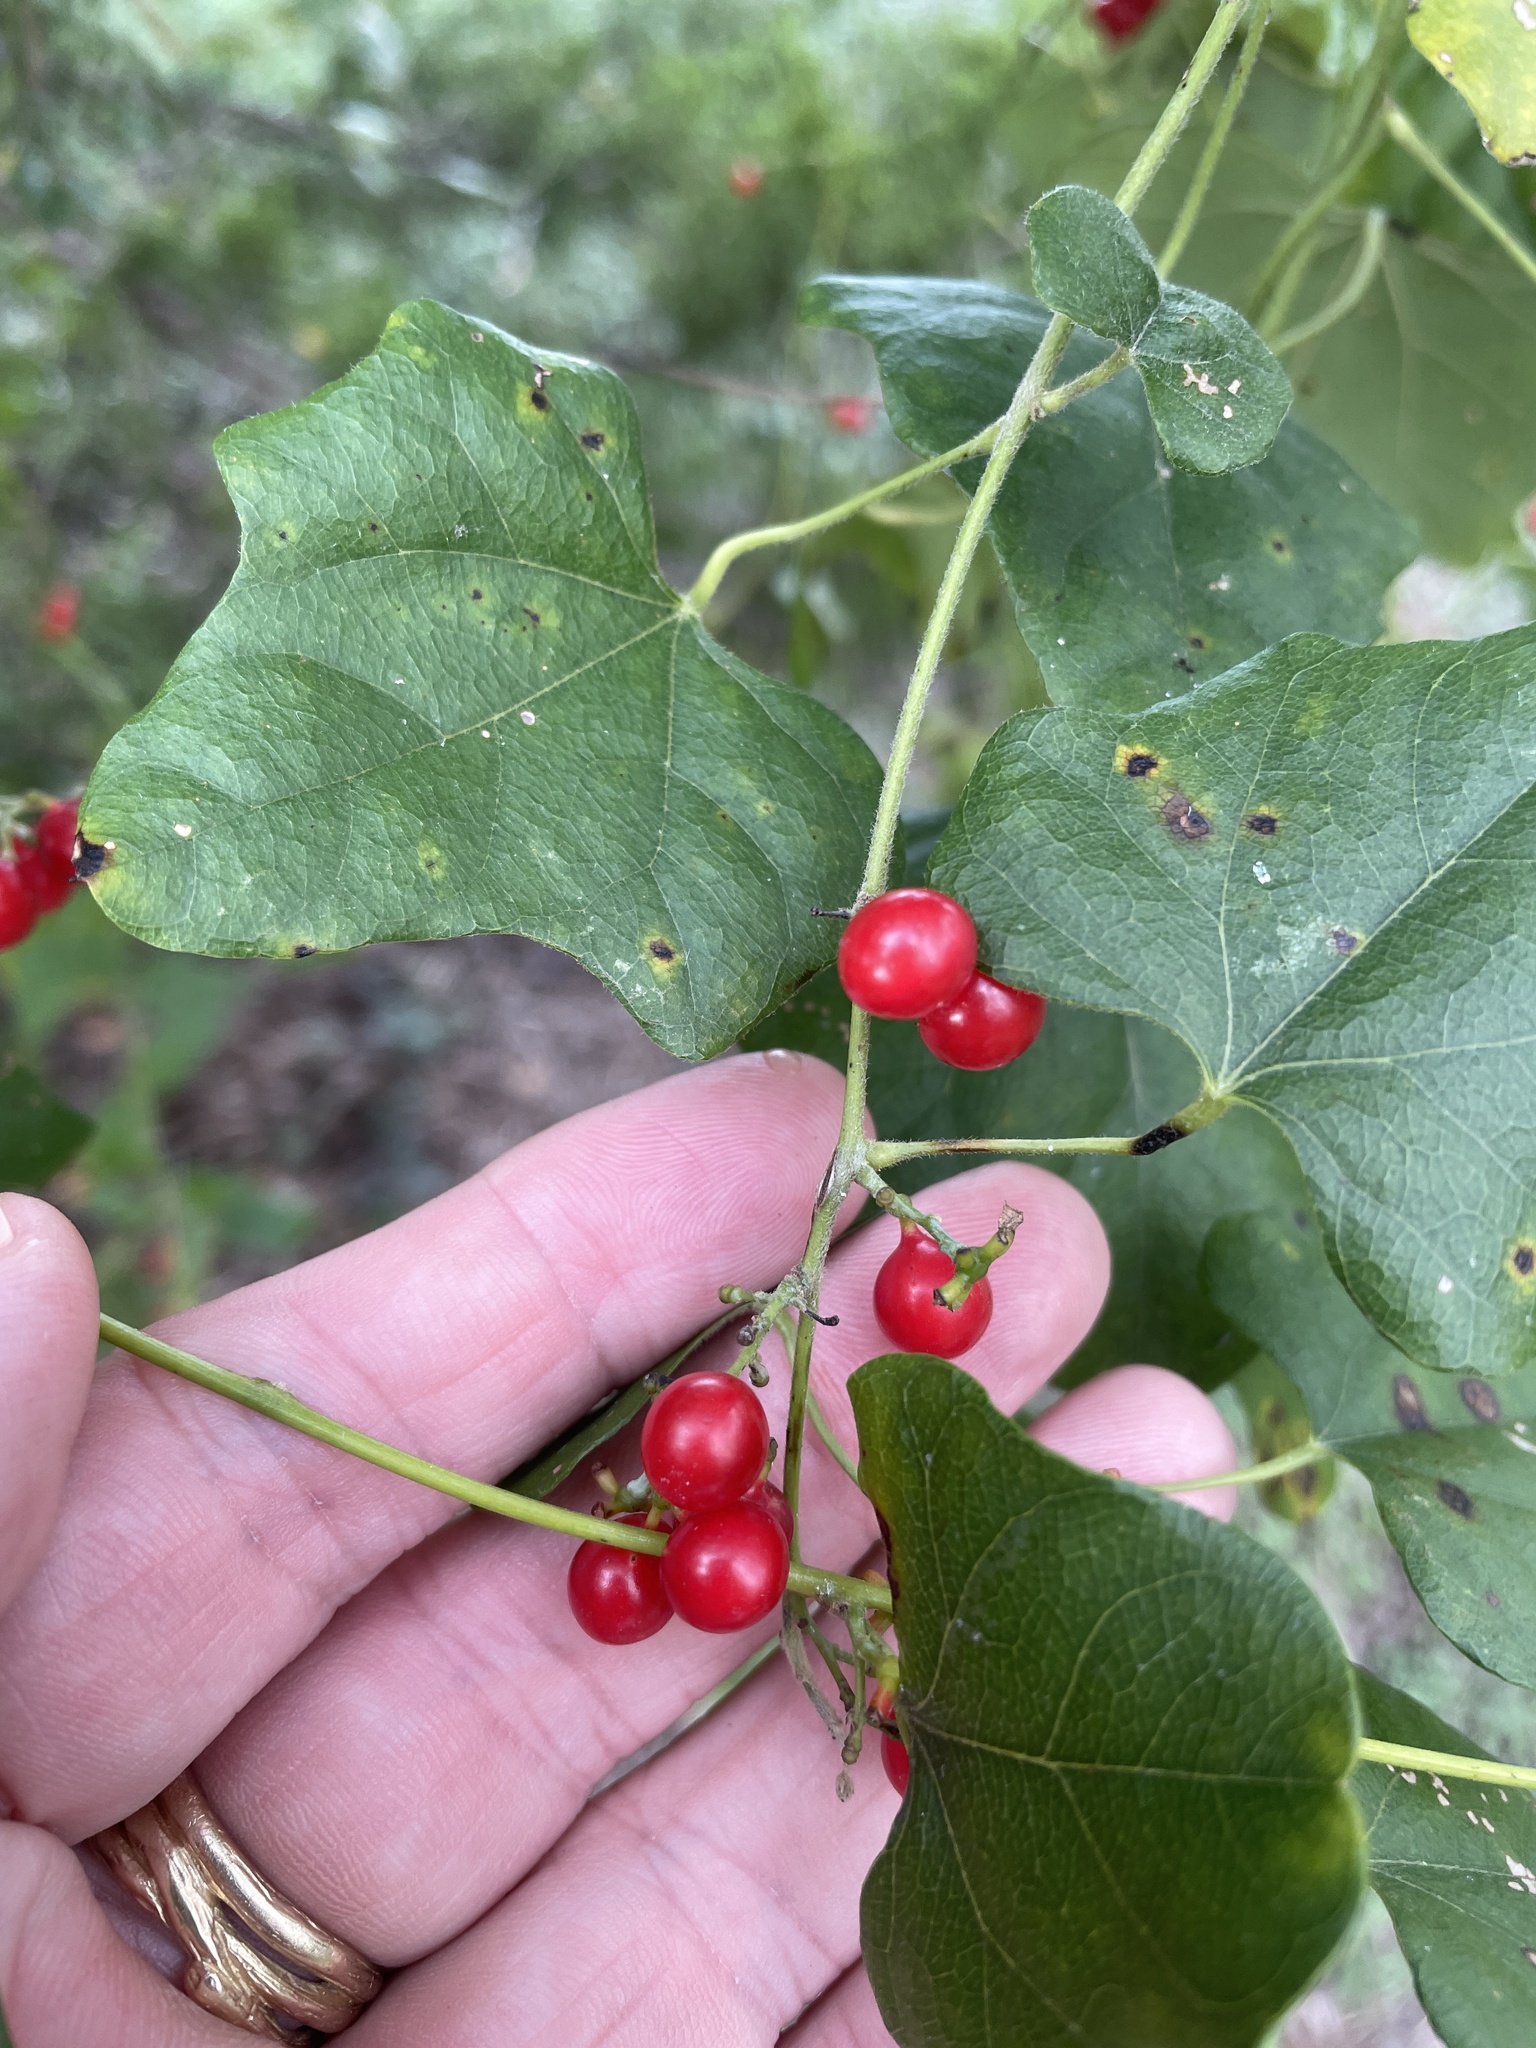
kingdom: Plantae
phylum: Tracheophyta
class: Magnoliopsida
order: Ranunculales
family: Menispermaceae
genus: Cocculus
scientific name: Cocculus carolinus
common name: Carolina moonseed
